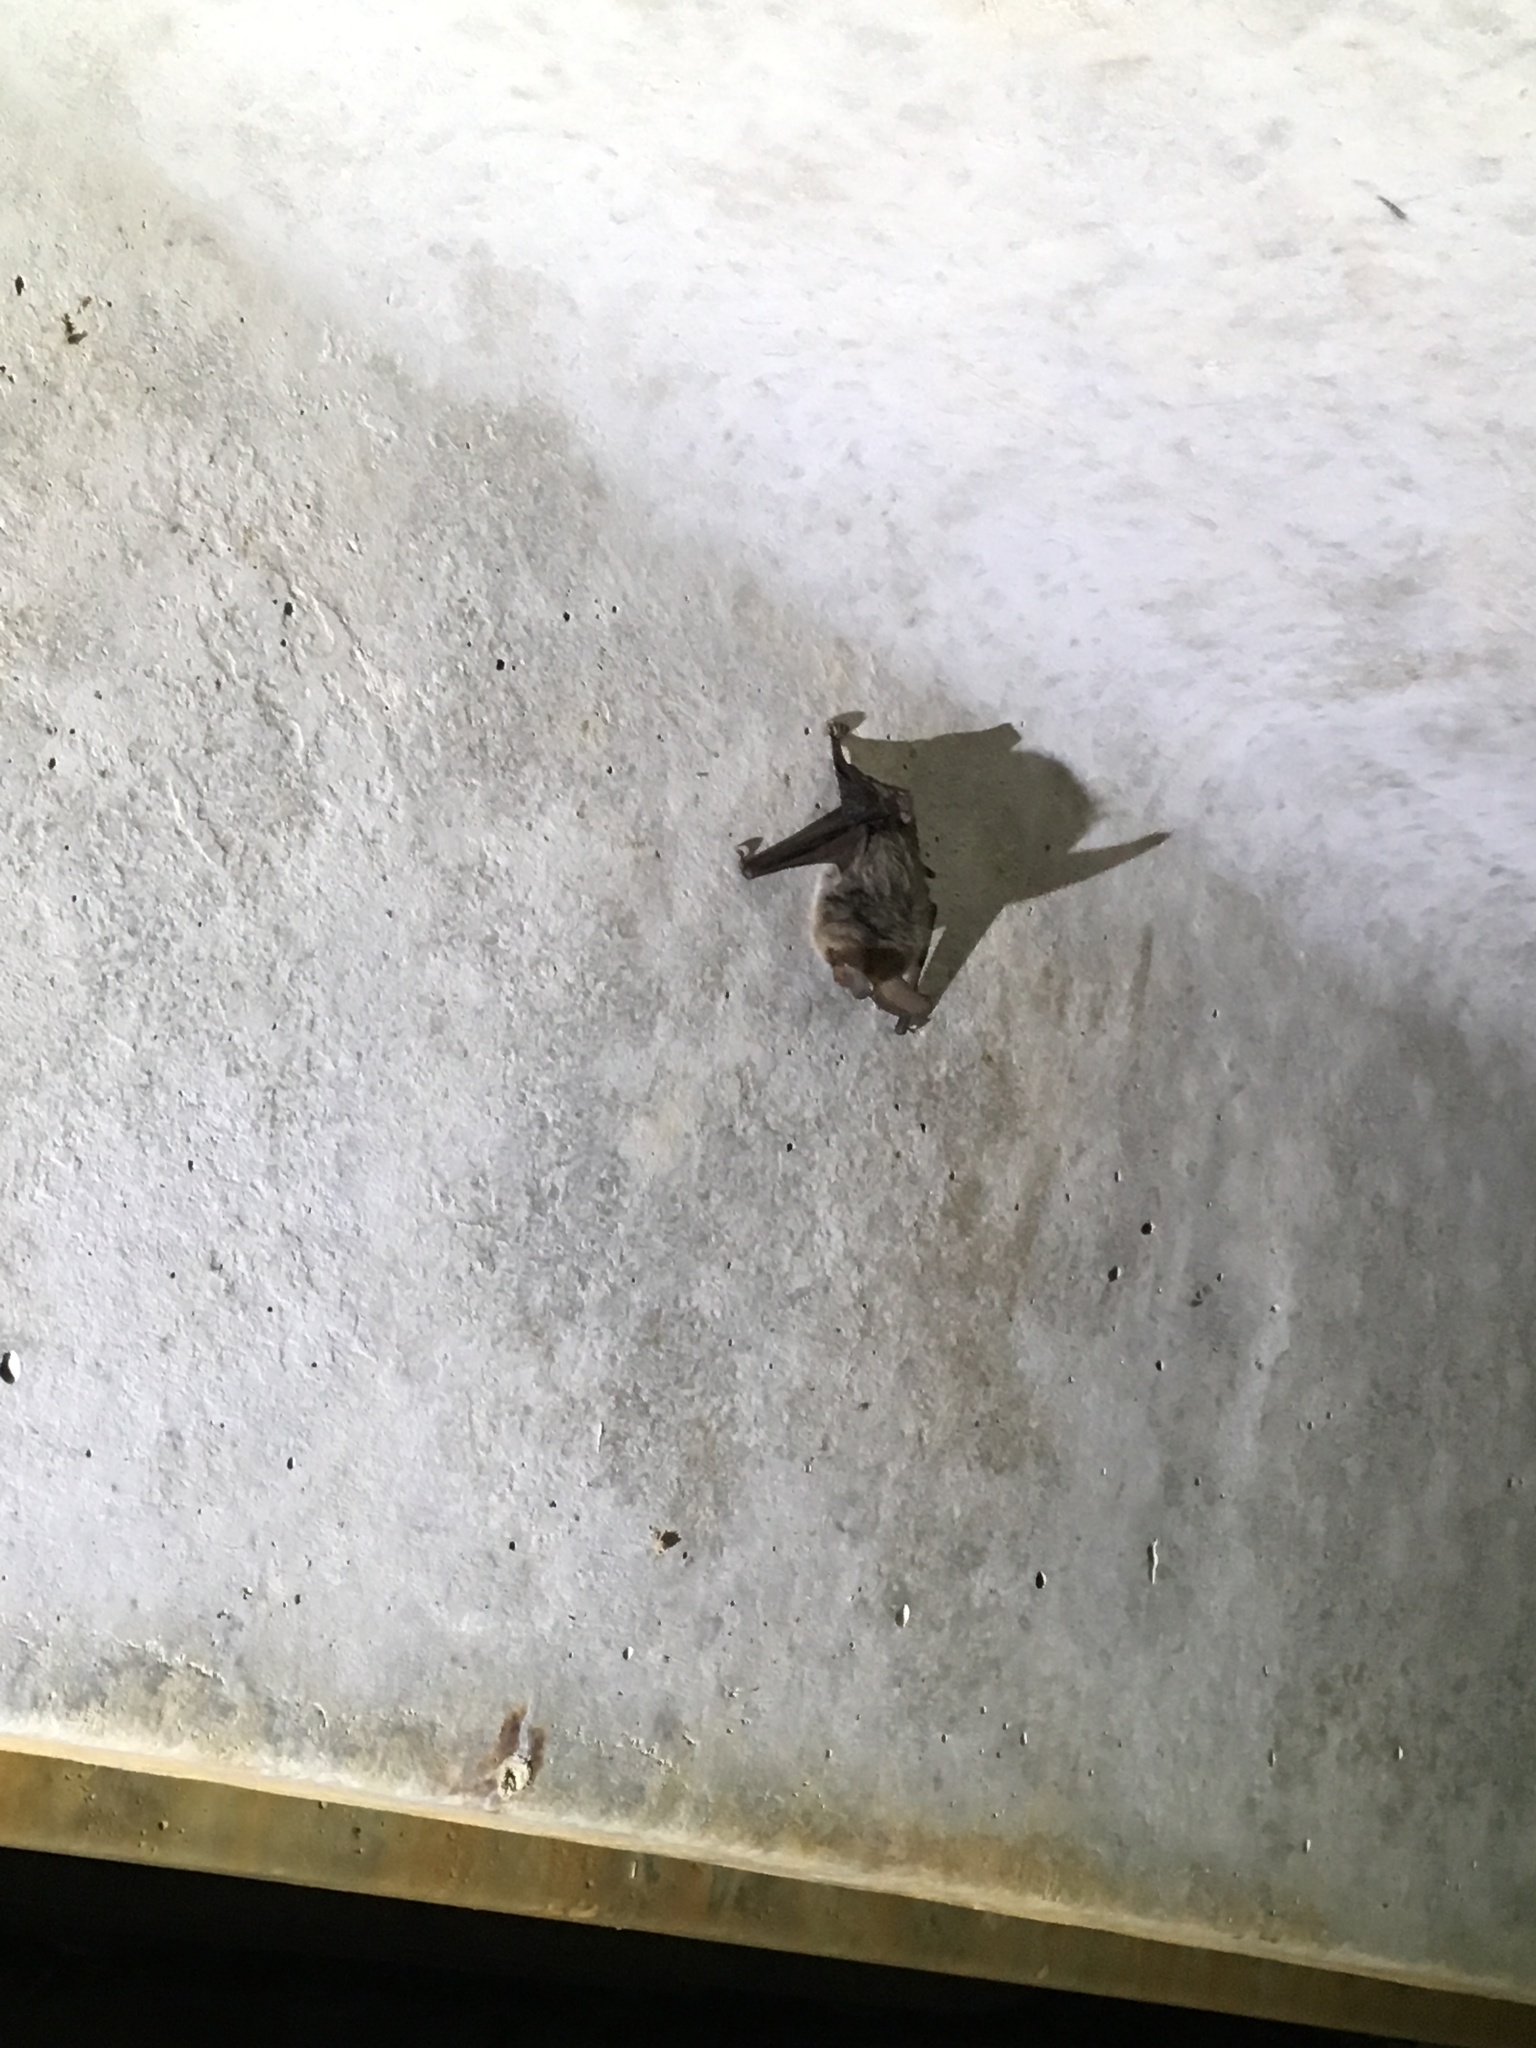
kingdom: Animalia
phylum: Chordata
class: Mammalia
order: Chiroptera
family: Vespertilionidae
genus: Corynorhinus
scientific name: Corynorhinus rafinesquii
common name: Rafinesque's big-eared bat
